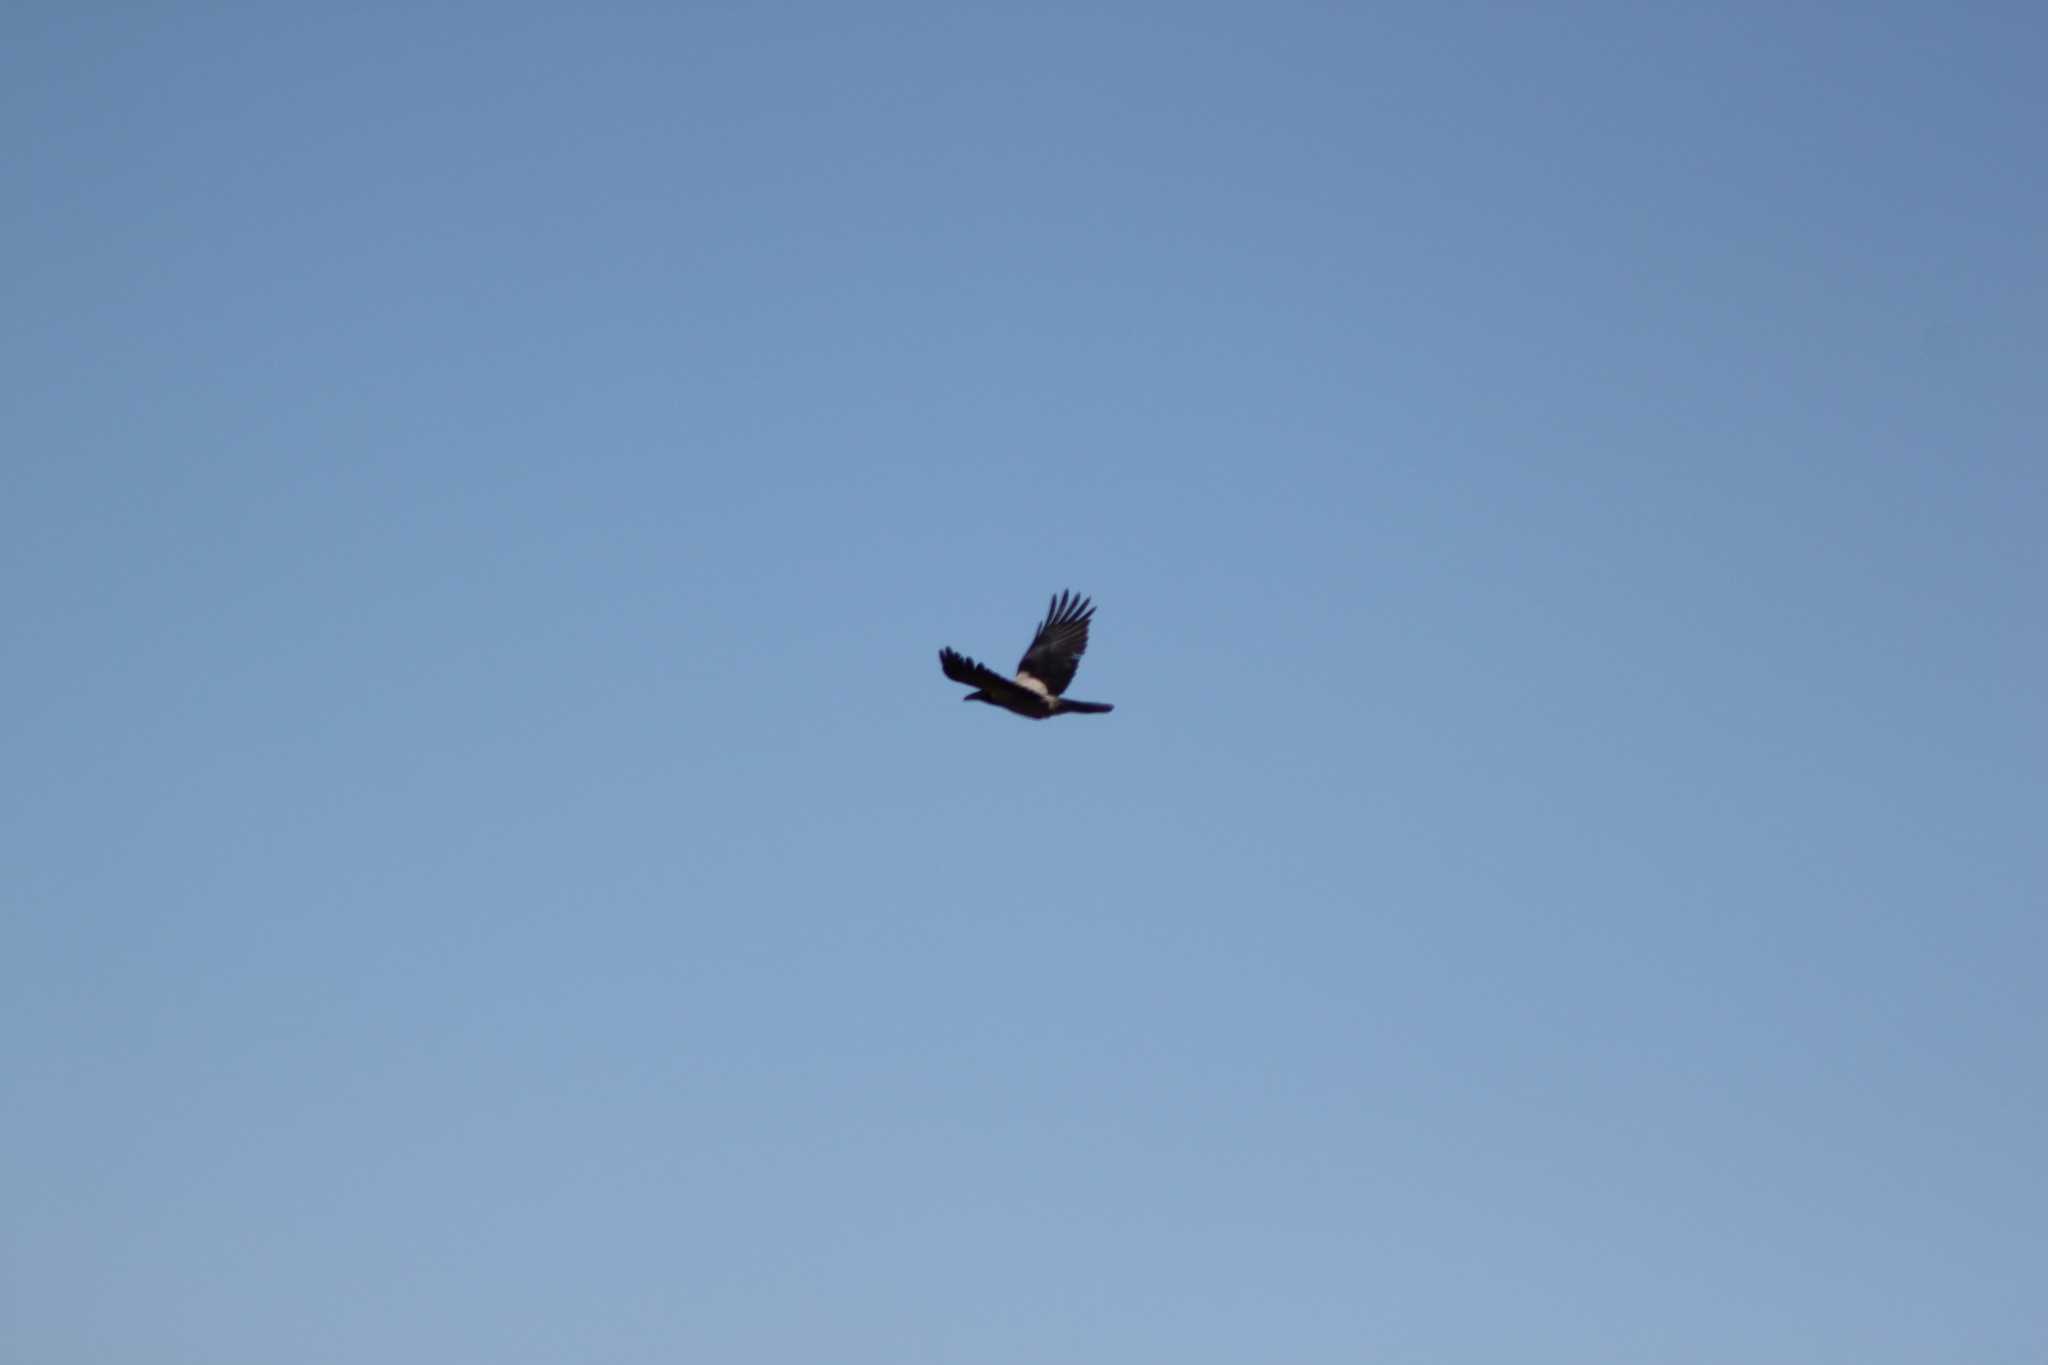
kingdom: Animalia
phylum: Chordata
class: Aves
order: Passeriformes
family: Corvidae
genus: Corvus
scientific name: Corvus cornix
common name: Hooded crow
